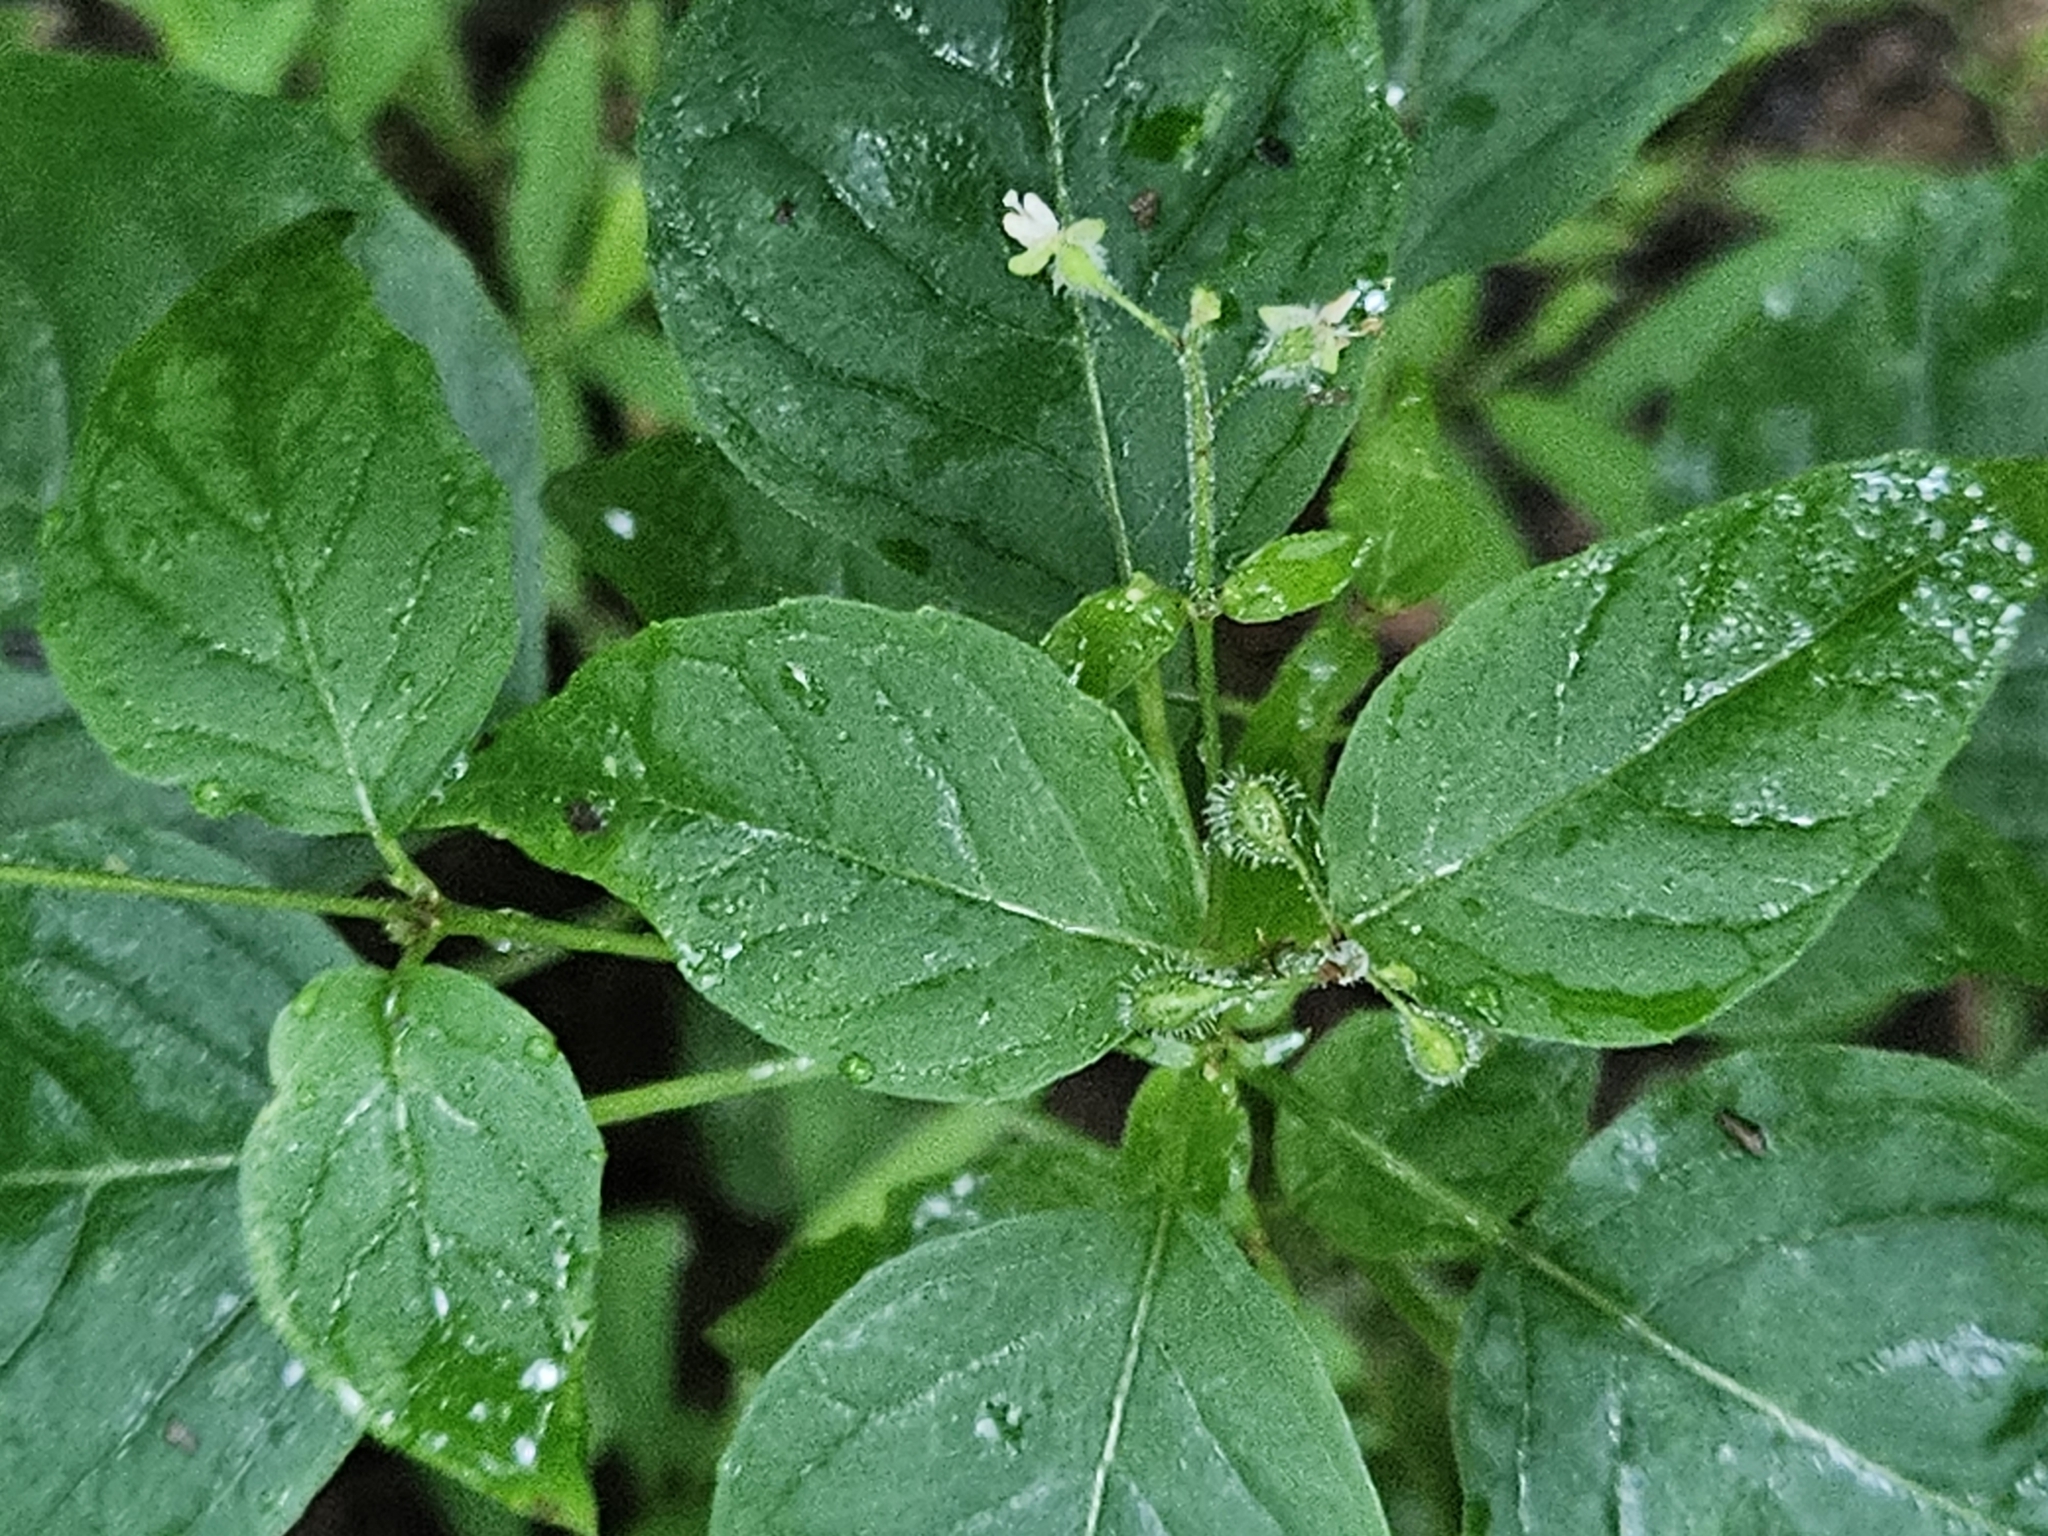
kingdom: Plantae
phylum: Tracheophyta
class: Magnoliopsida
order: Myrtales
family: Onagraceae
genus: Circaea
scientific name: Circaea canadensis
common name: Broad-leaved enchanter's nightshade
